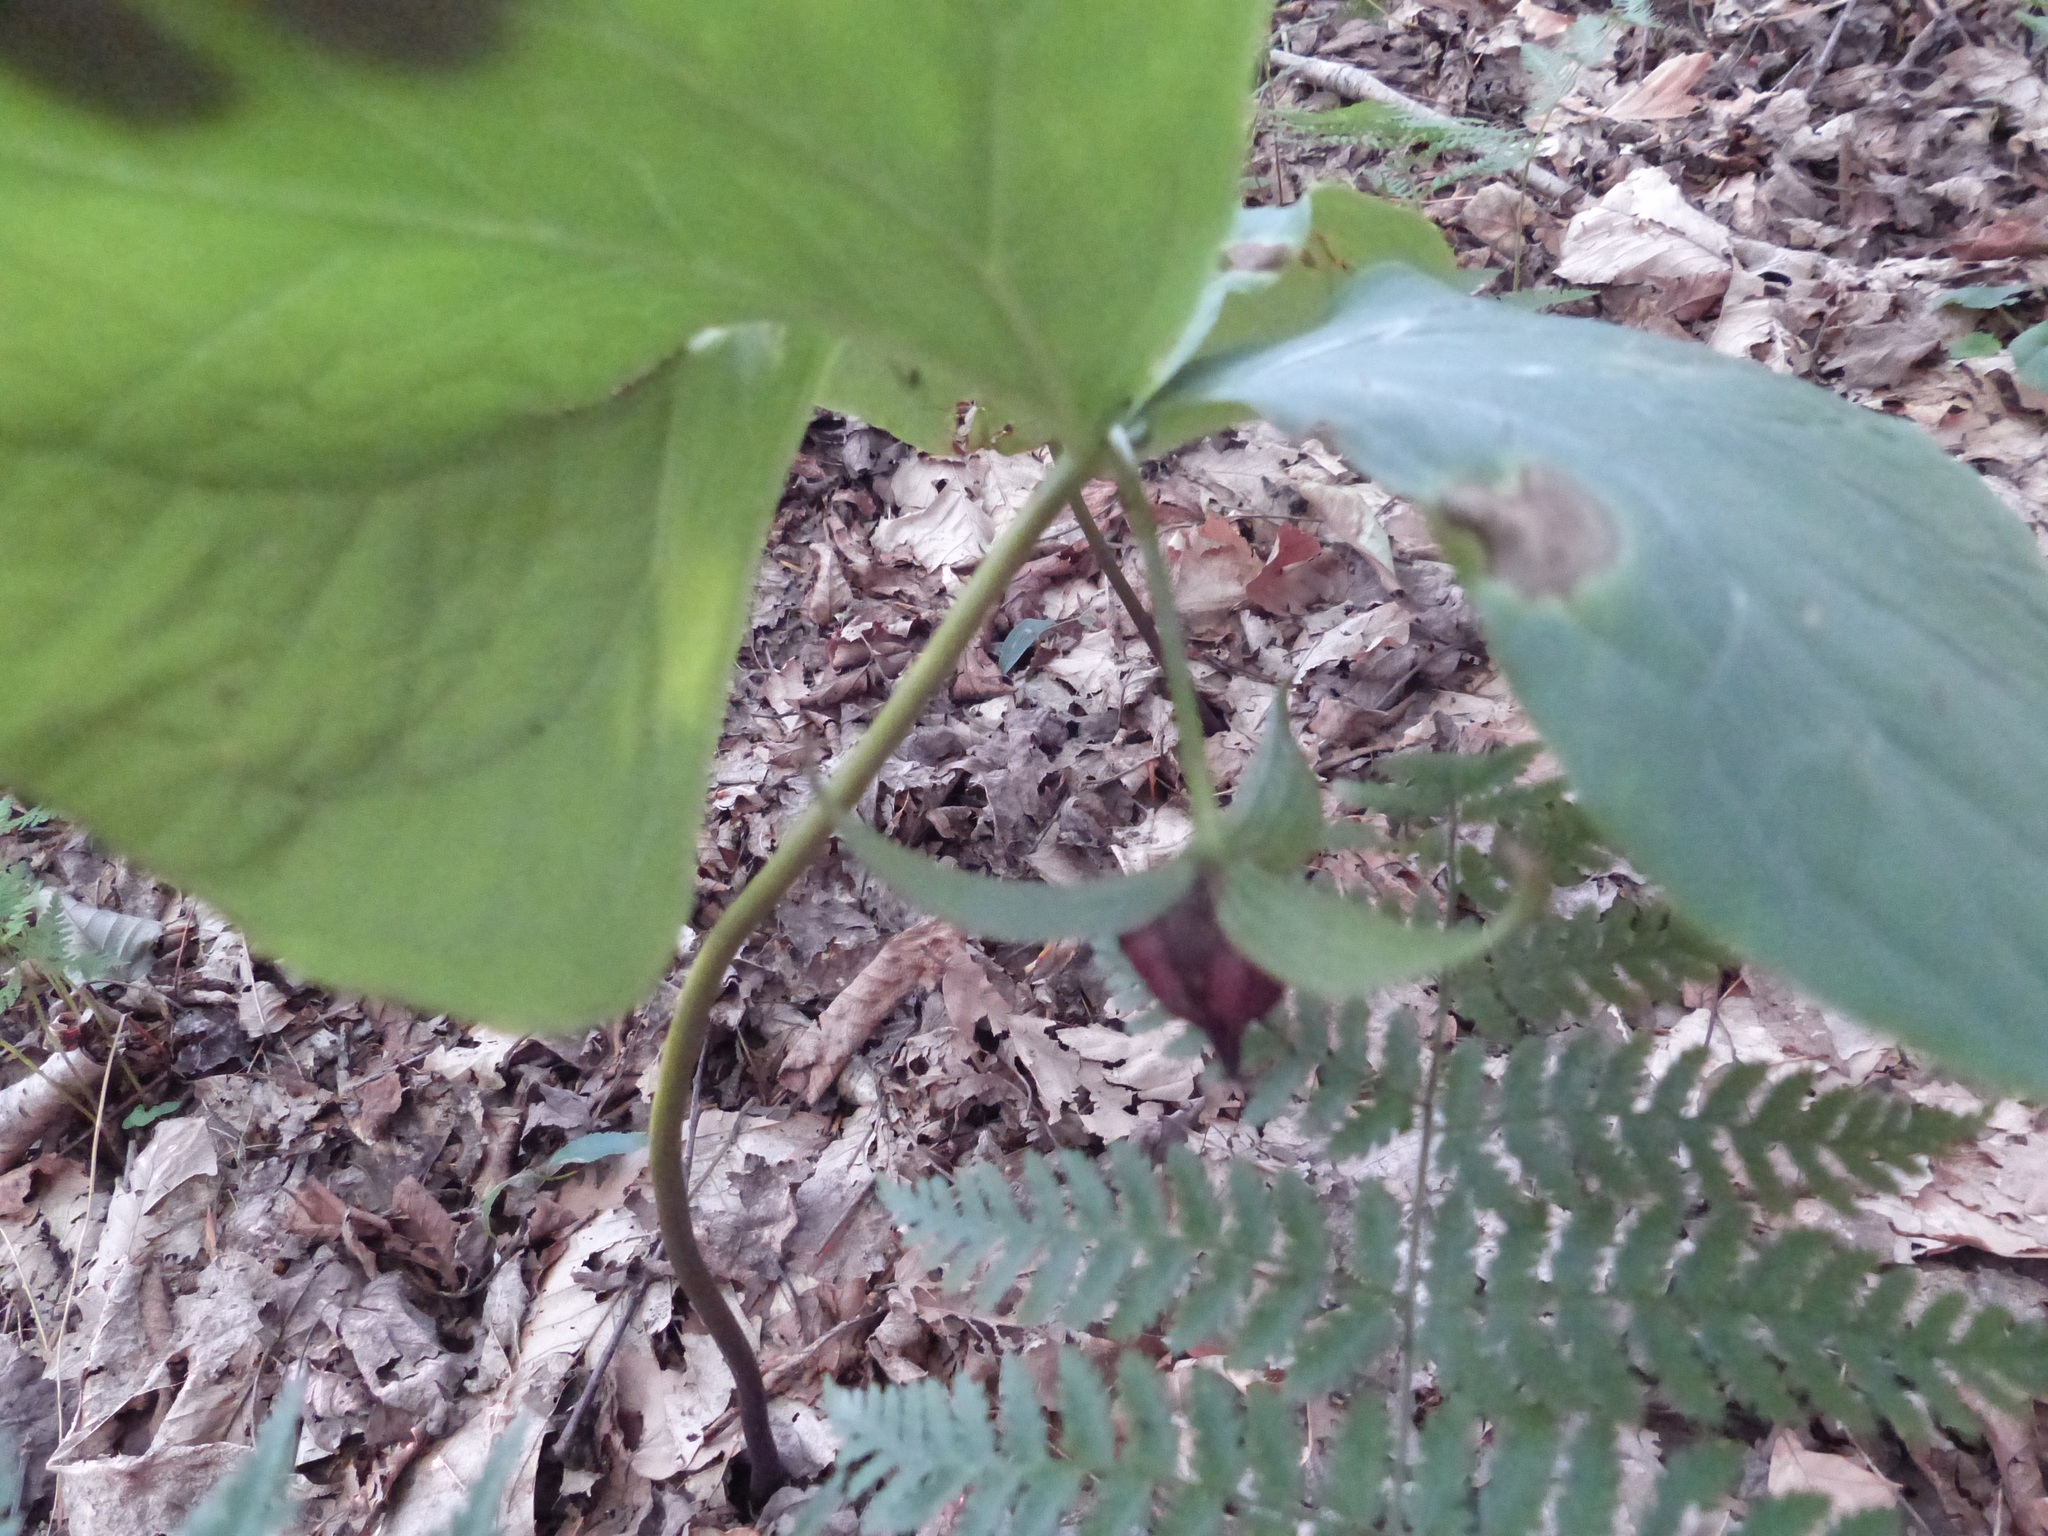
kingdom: Plantae
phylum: Tracheophyta
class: Liliopsida
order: Liliales
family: Melanthiaceae
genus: Trillium
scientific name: Trillium erectum
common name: Purple trillium
